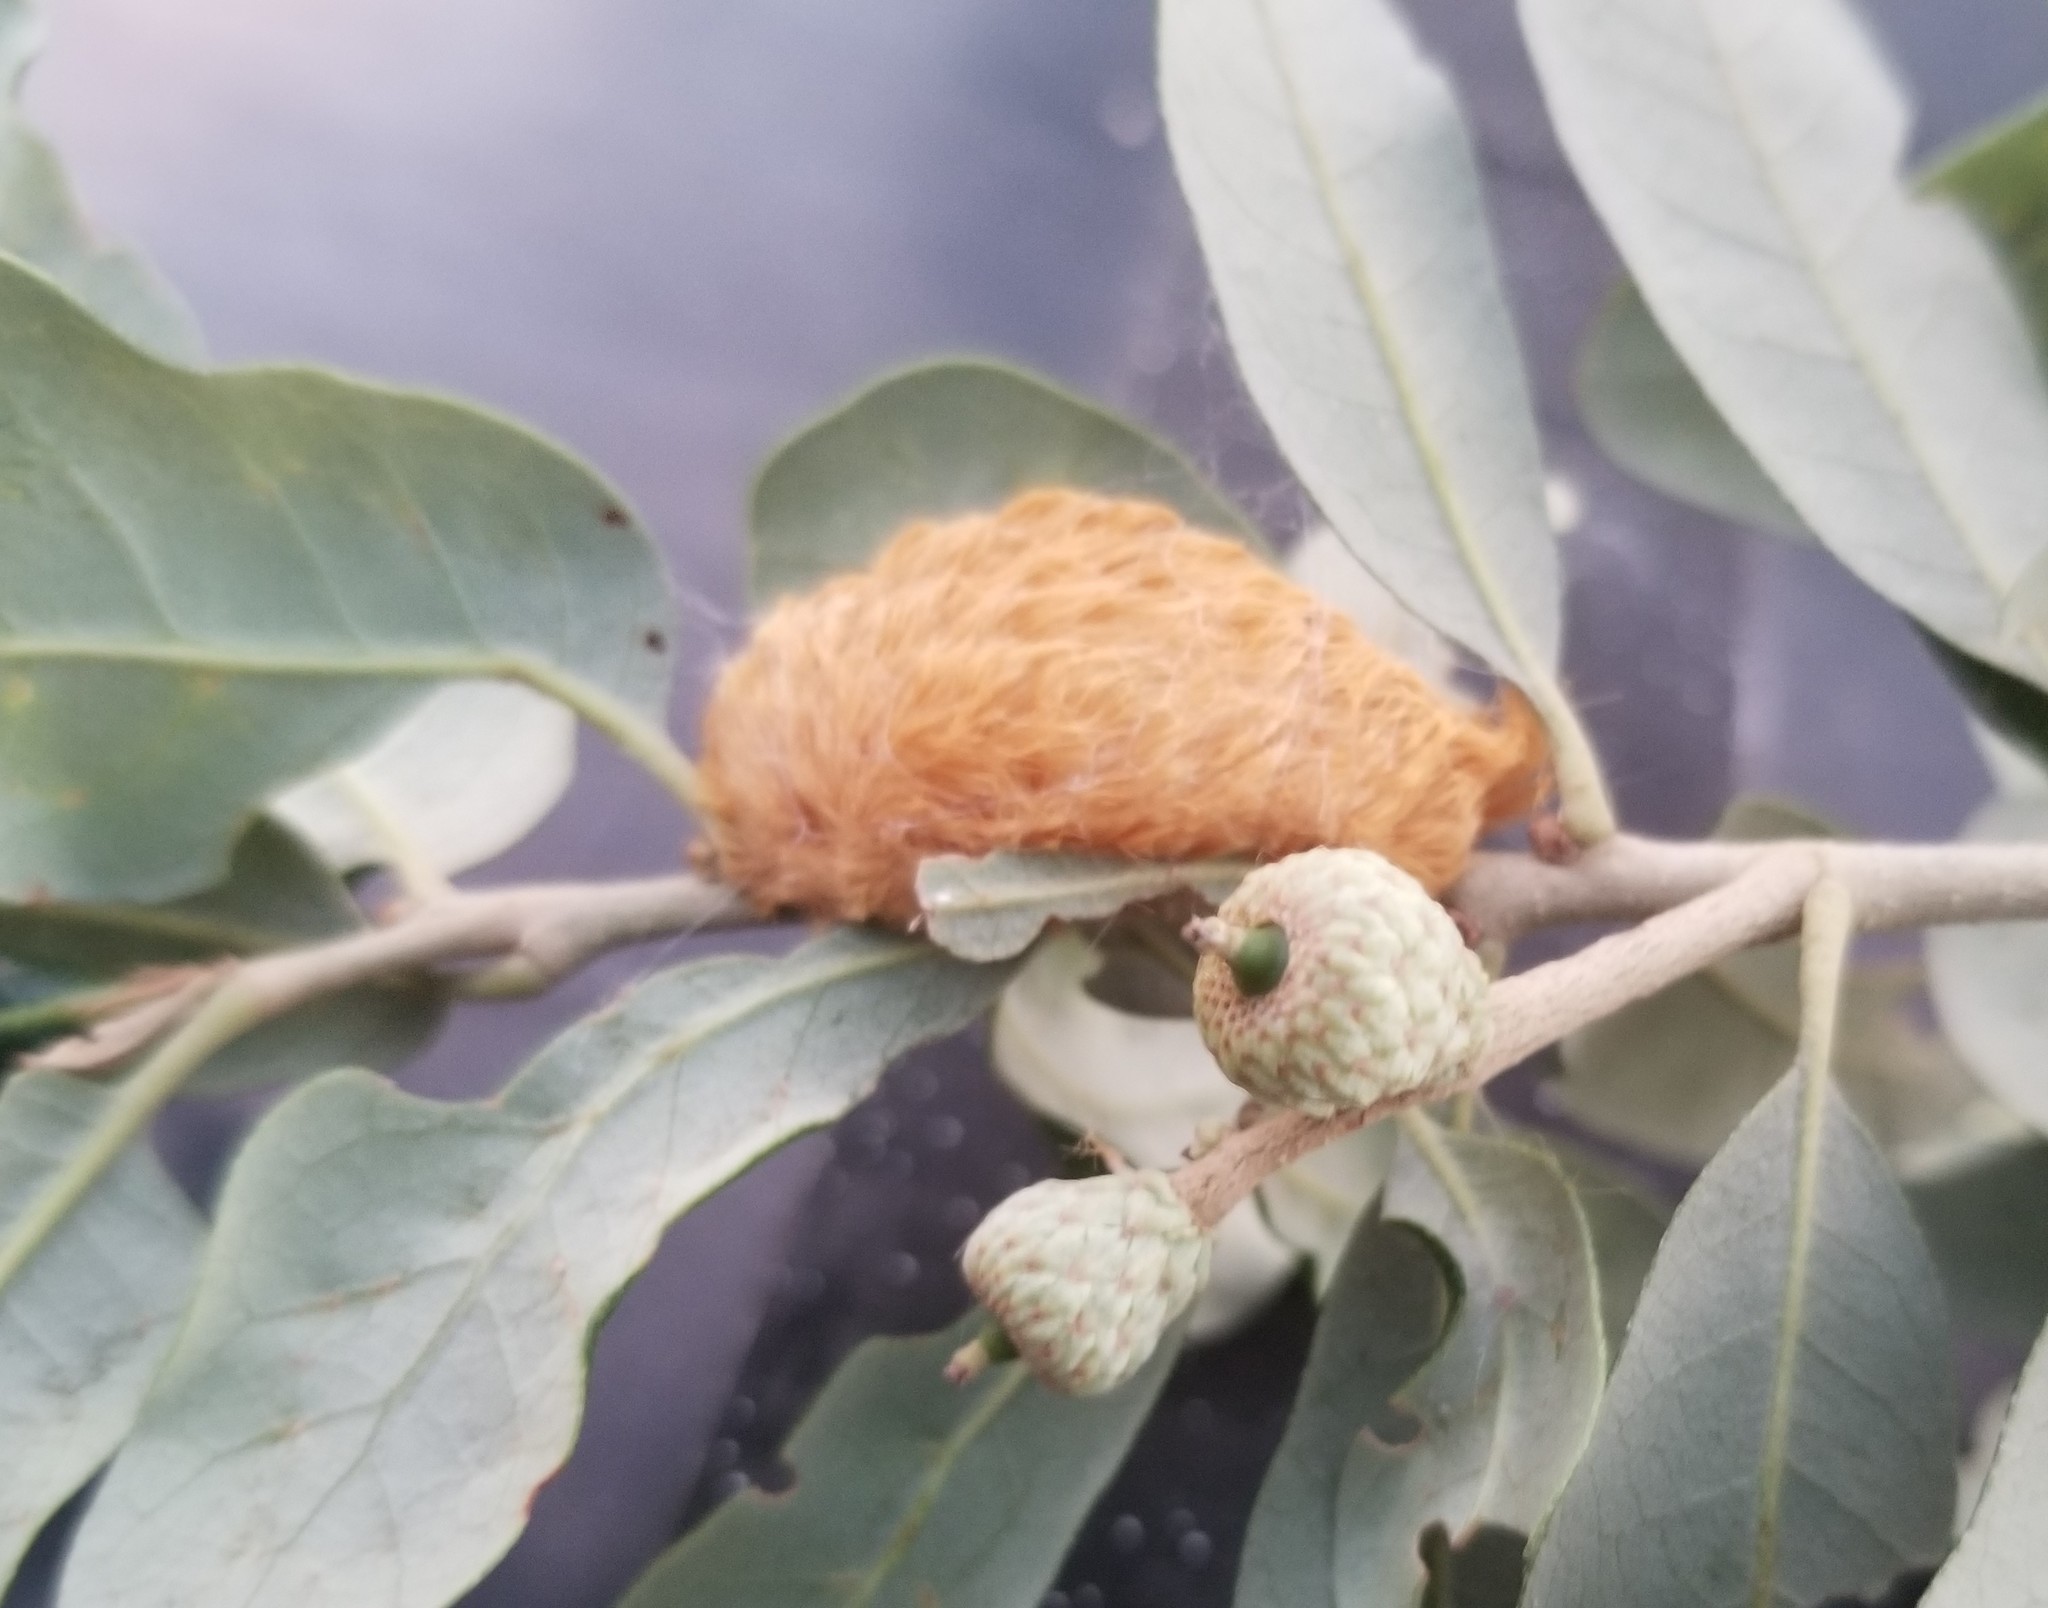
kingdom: Animalia
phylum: Arthropoda
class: Insecta
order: Lepidoptera
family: Megalopygidae
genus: Megalopyge
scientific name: Megalopyge opercularis
